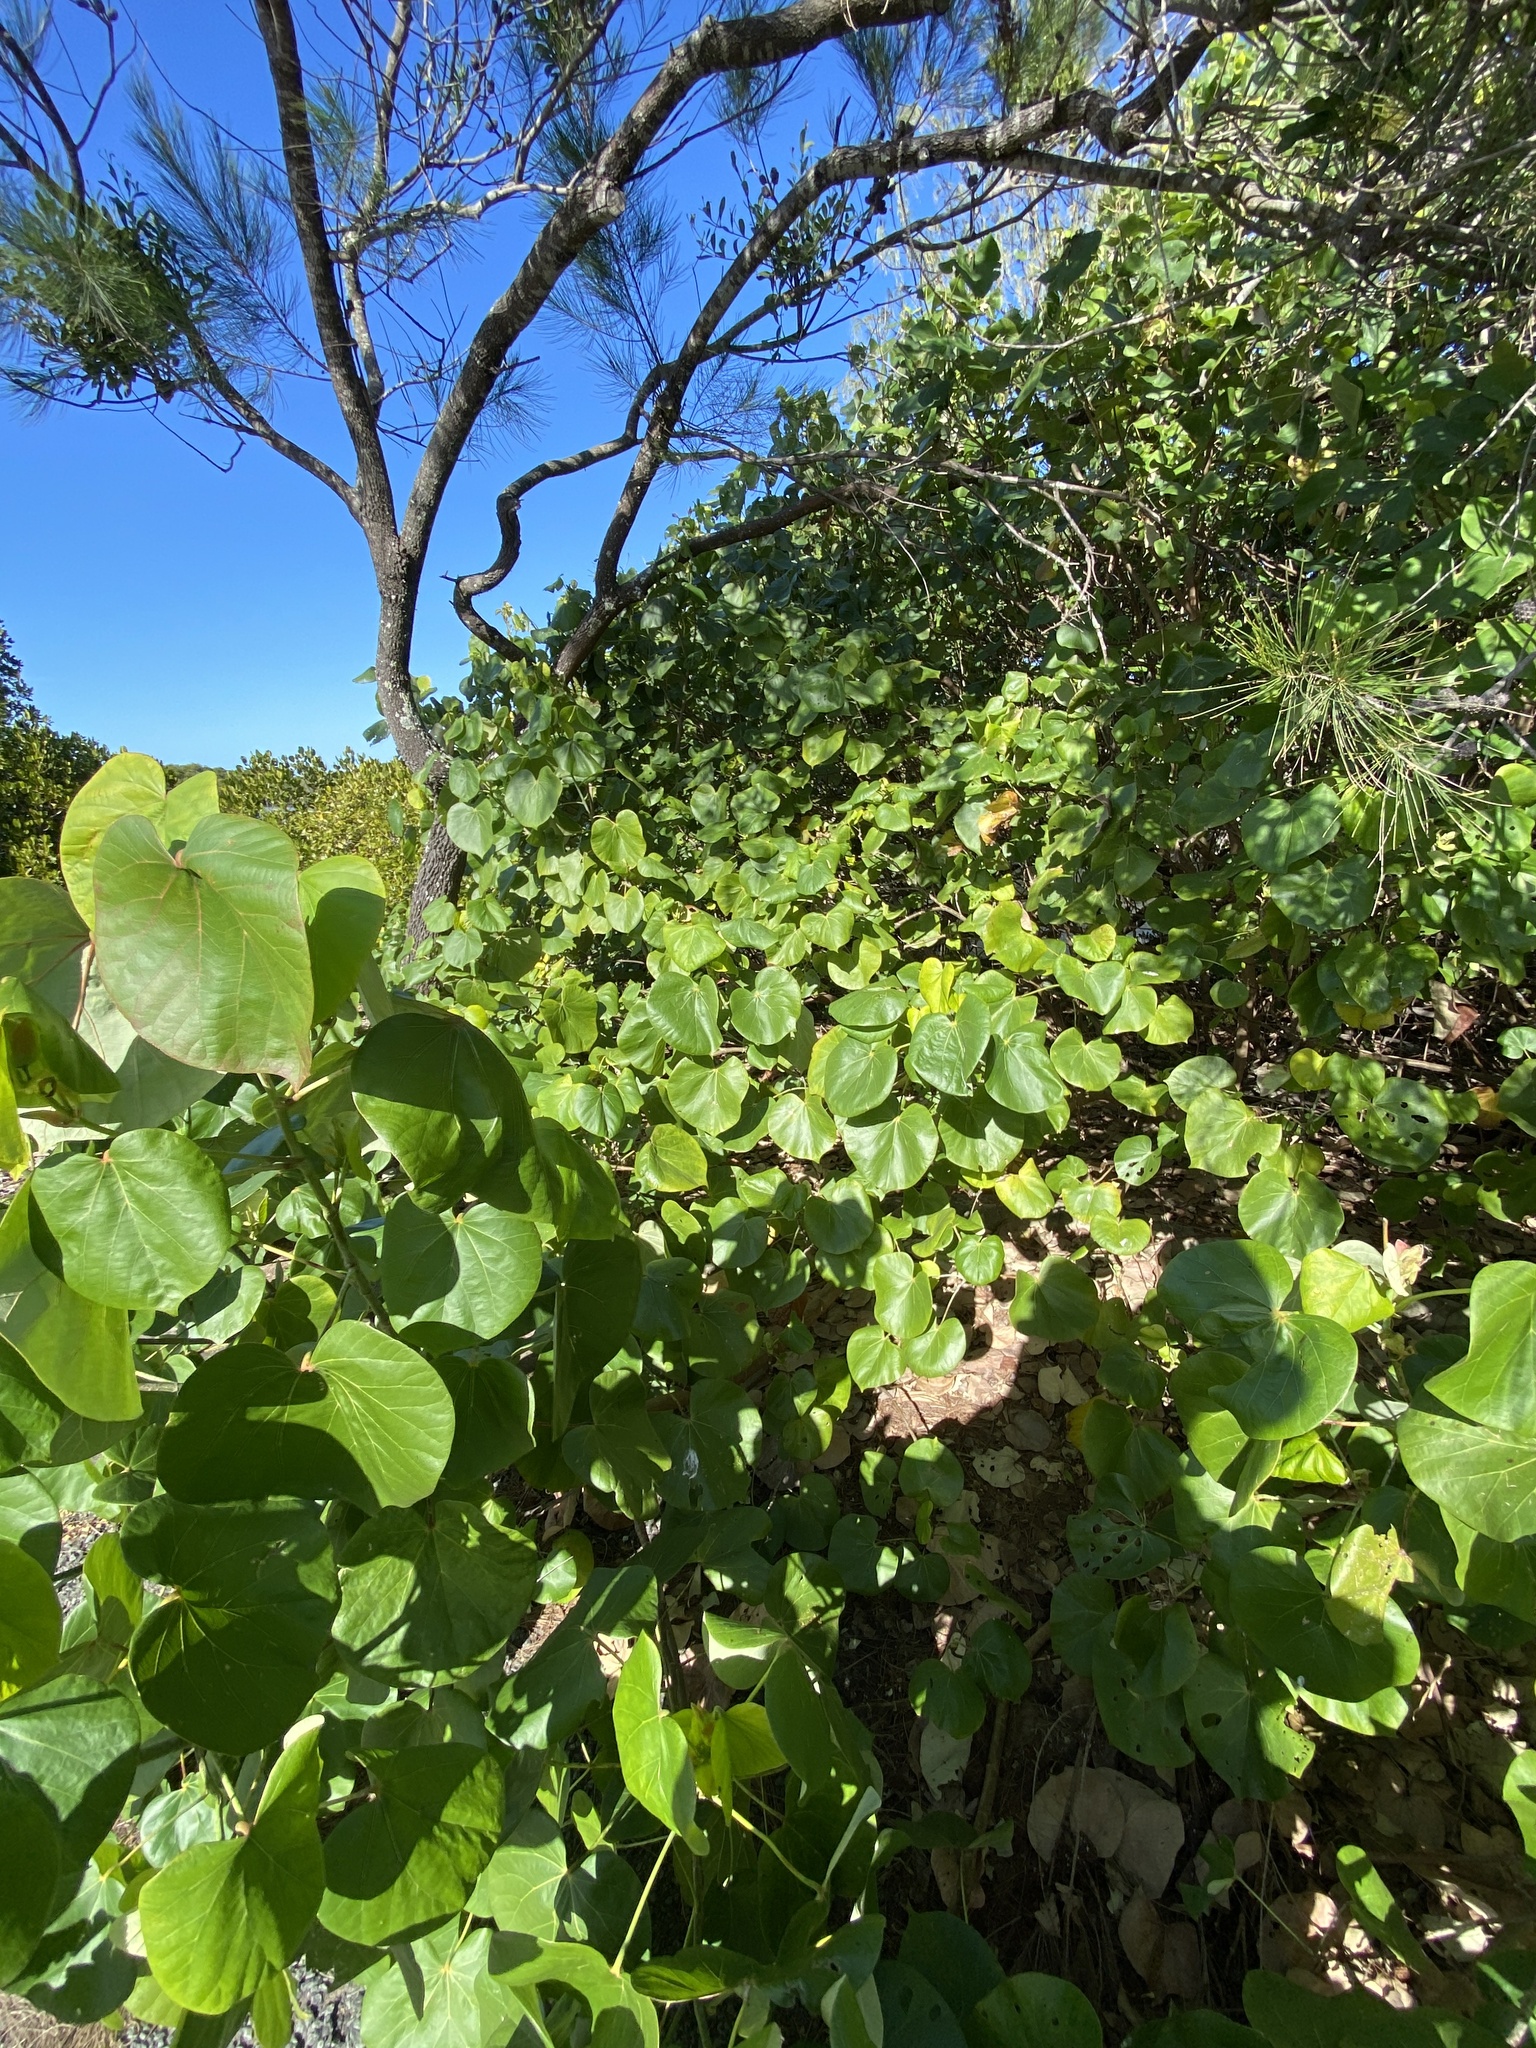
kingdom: Plantae
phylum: Tracheophyta
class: Magnoliopsida
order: Malvales
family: Malvaceae
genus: Talipariti
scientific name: Talipariti tiliaceum
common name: Sea hibiscus
